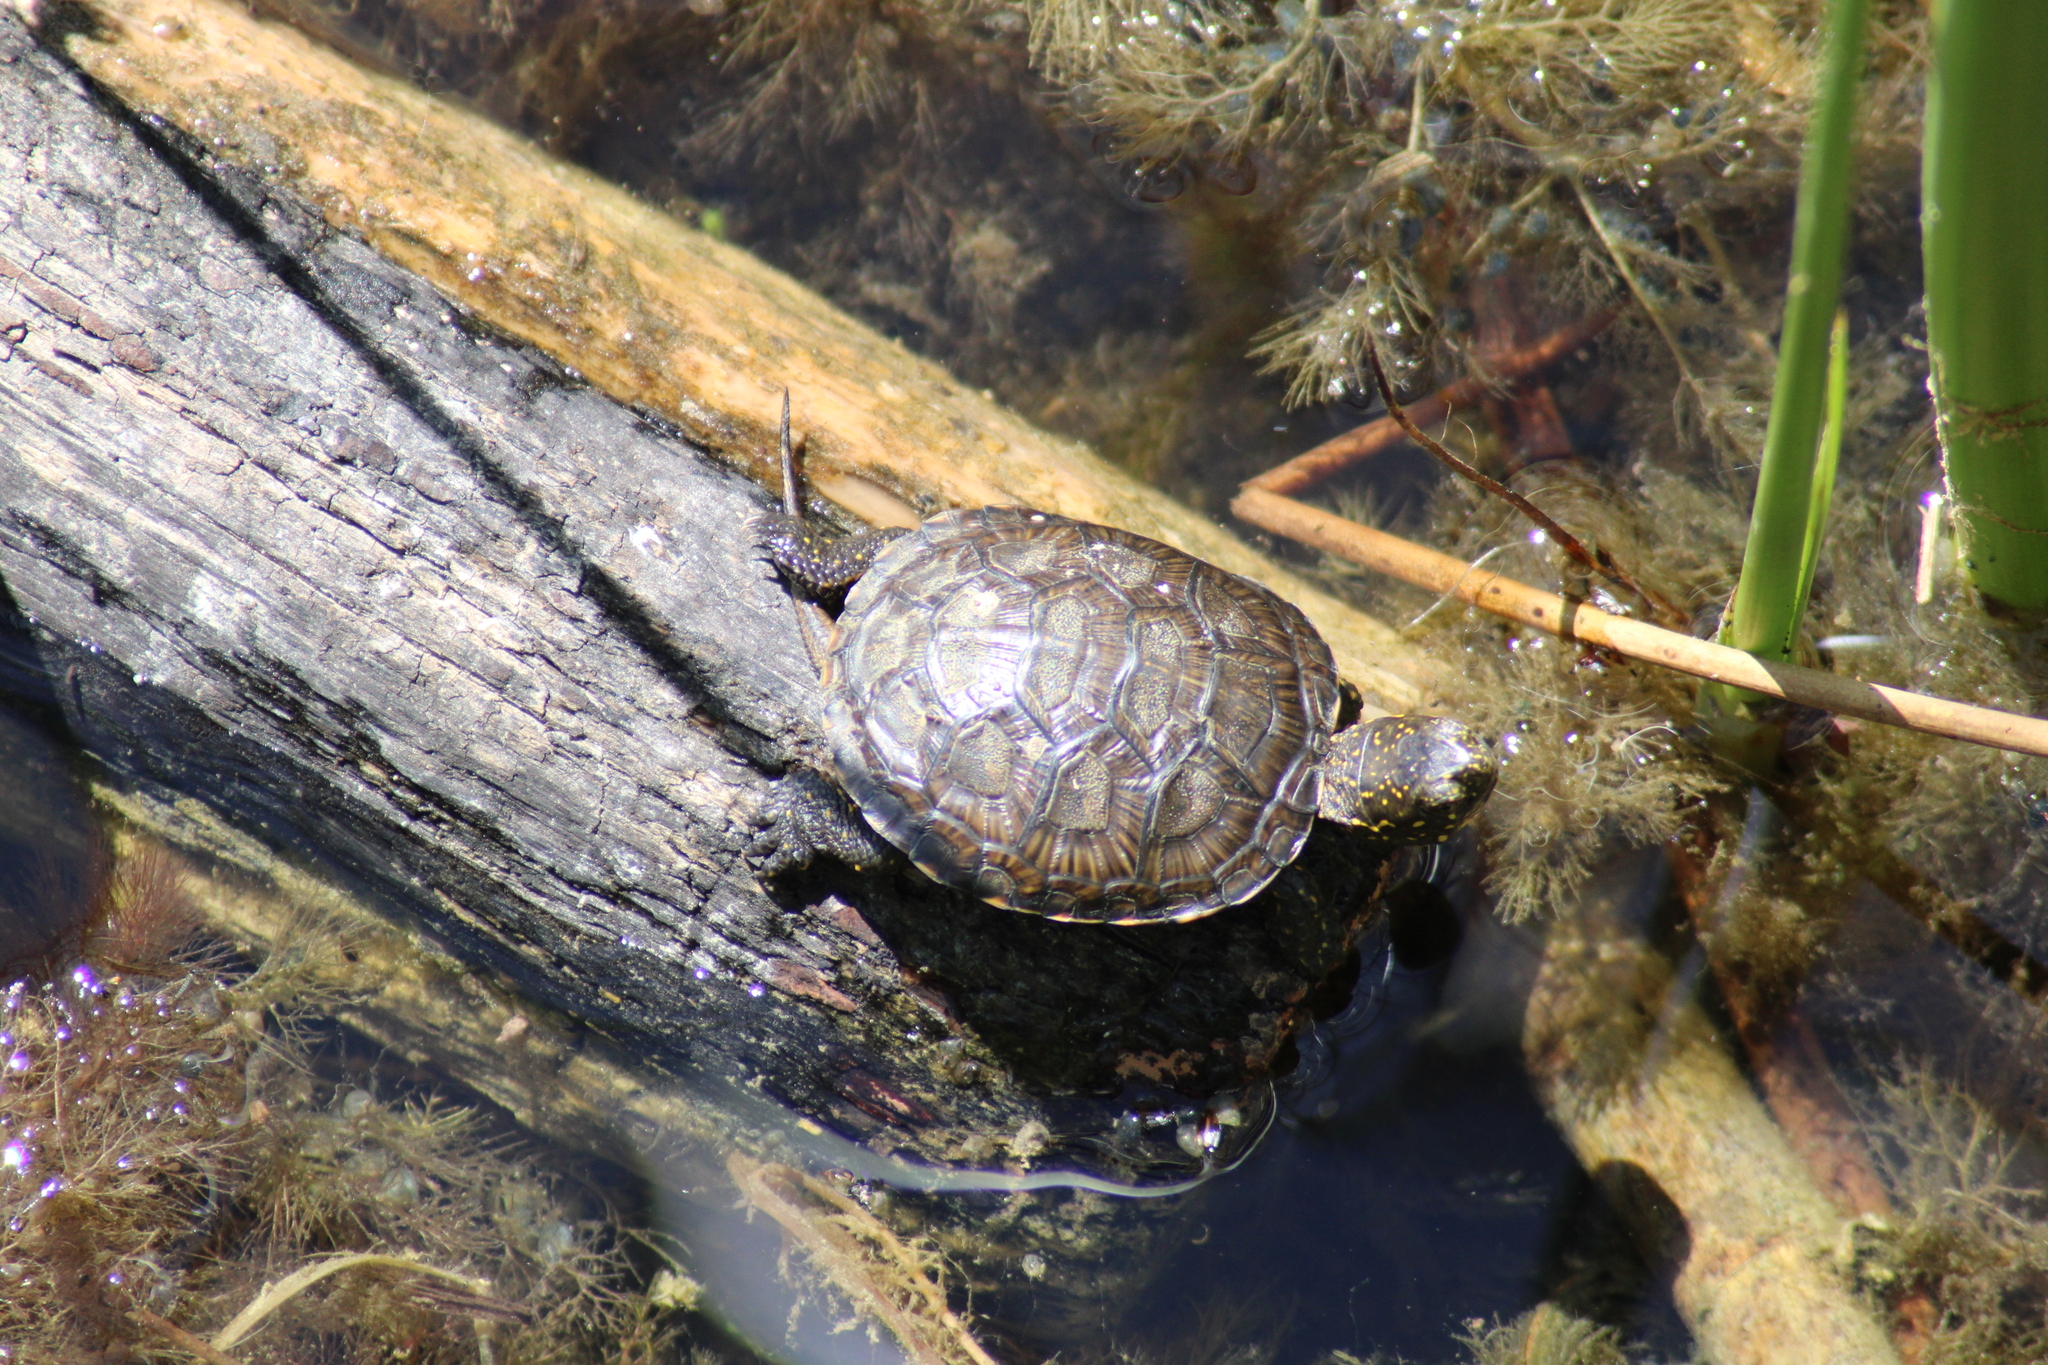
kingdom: Animalia
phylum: Chordata
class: Testudines
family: Emydidae
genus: Emys
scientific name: Emys orbicularis
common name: European pond turtle
